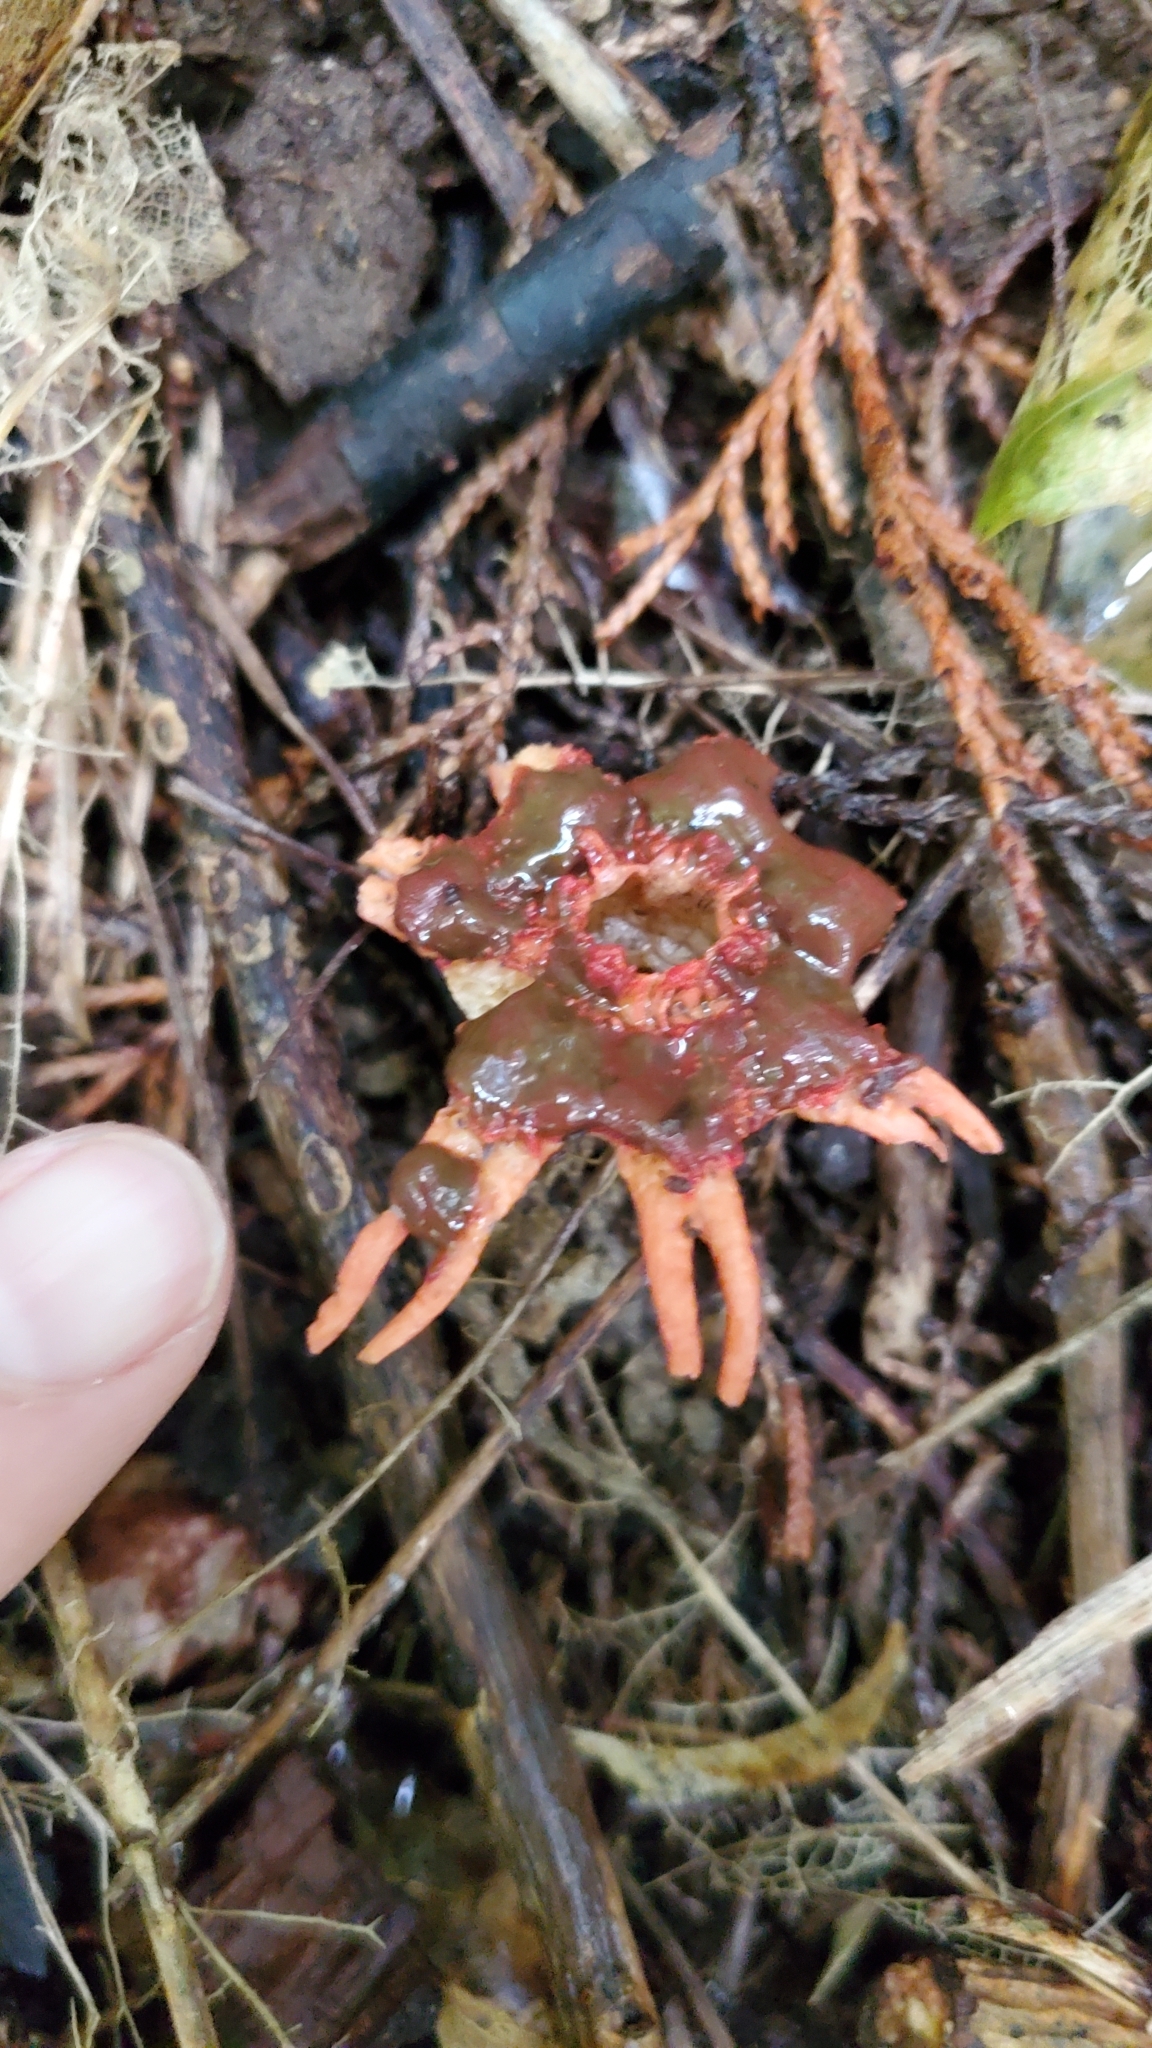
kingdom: Fungi
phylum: Basidiomycota
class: Agaricomycetes
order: Phallales
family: Phallaceae
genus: Aseroe
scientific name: Aseroe rubra
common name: Starfish fungus
